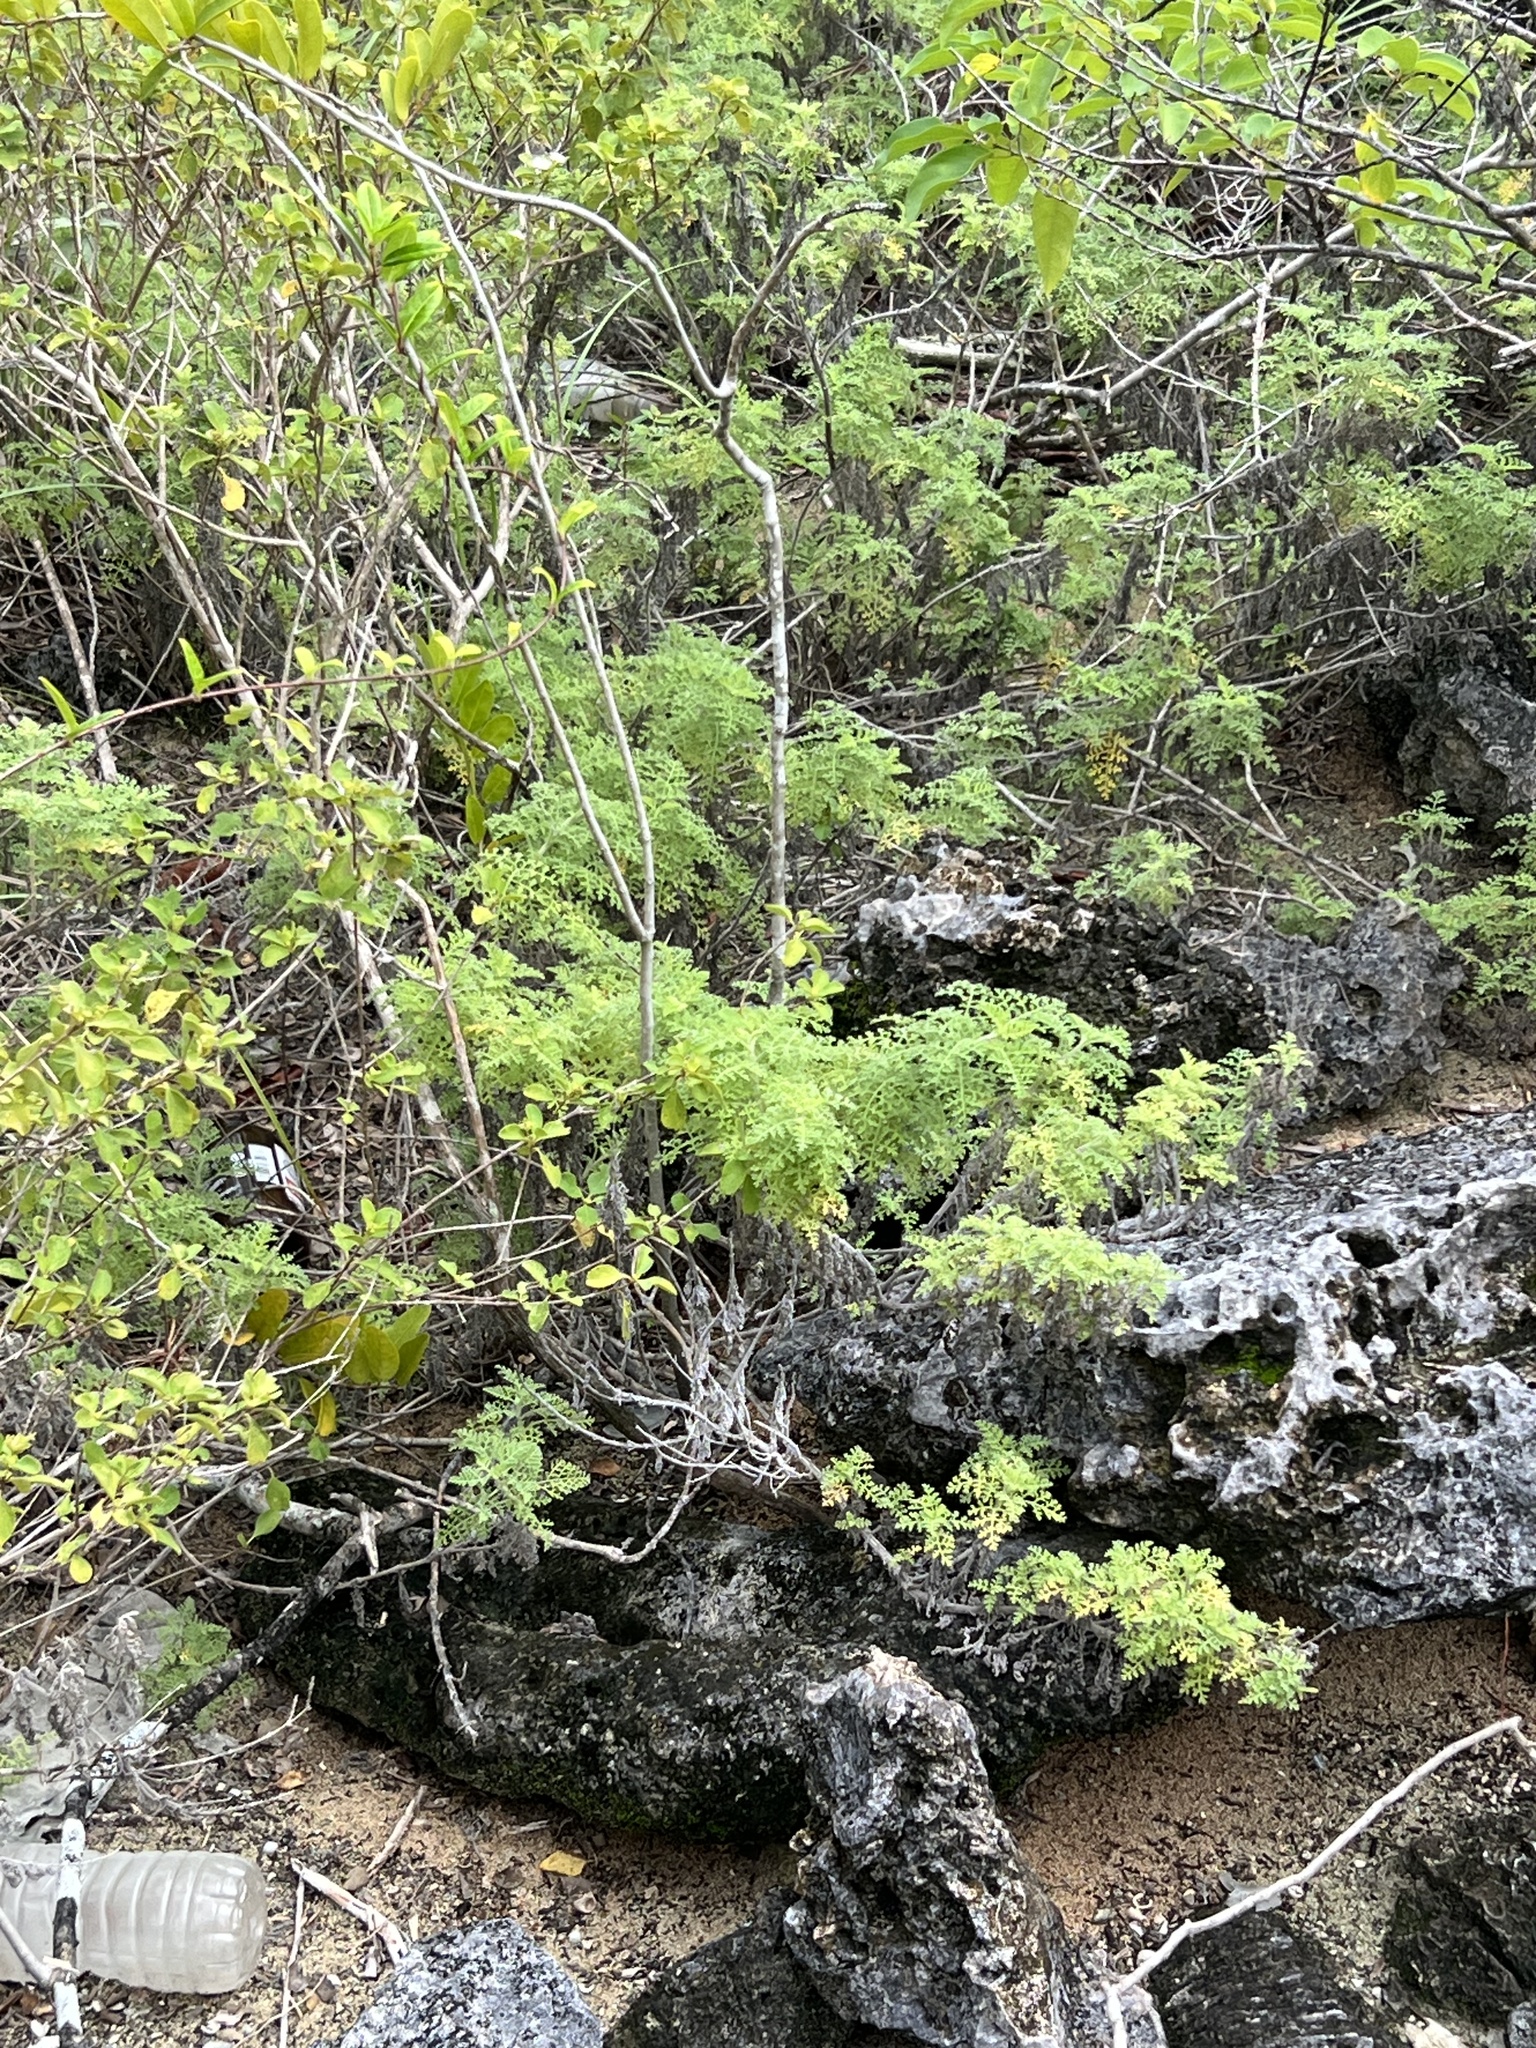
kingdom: Plantae
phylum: Tracheophyta
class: Magnoliopsida
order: Asterales
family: Asteraceae
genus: Ambrosia
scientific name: Ambrosia hispida
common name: Coastal ragweed
